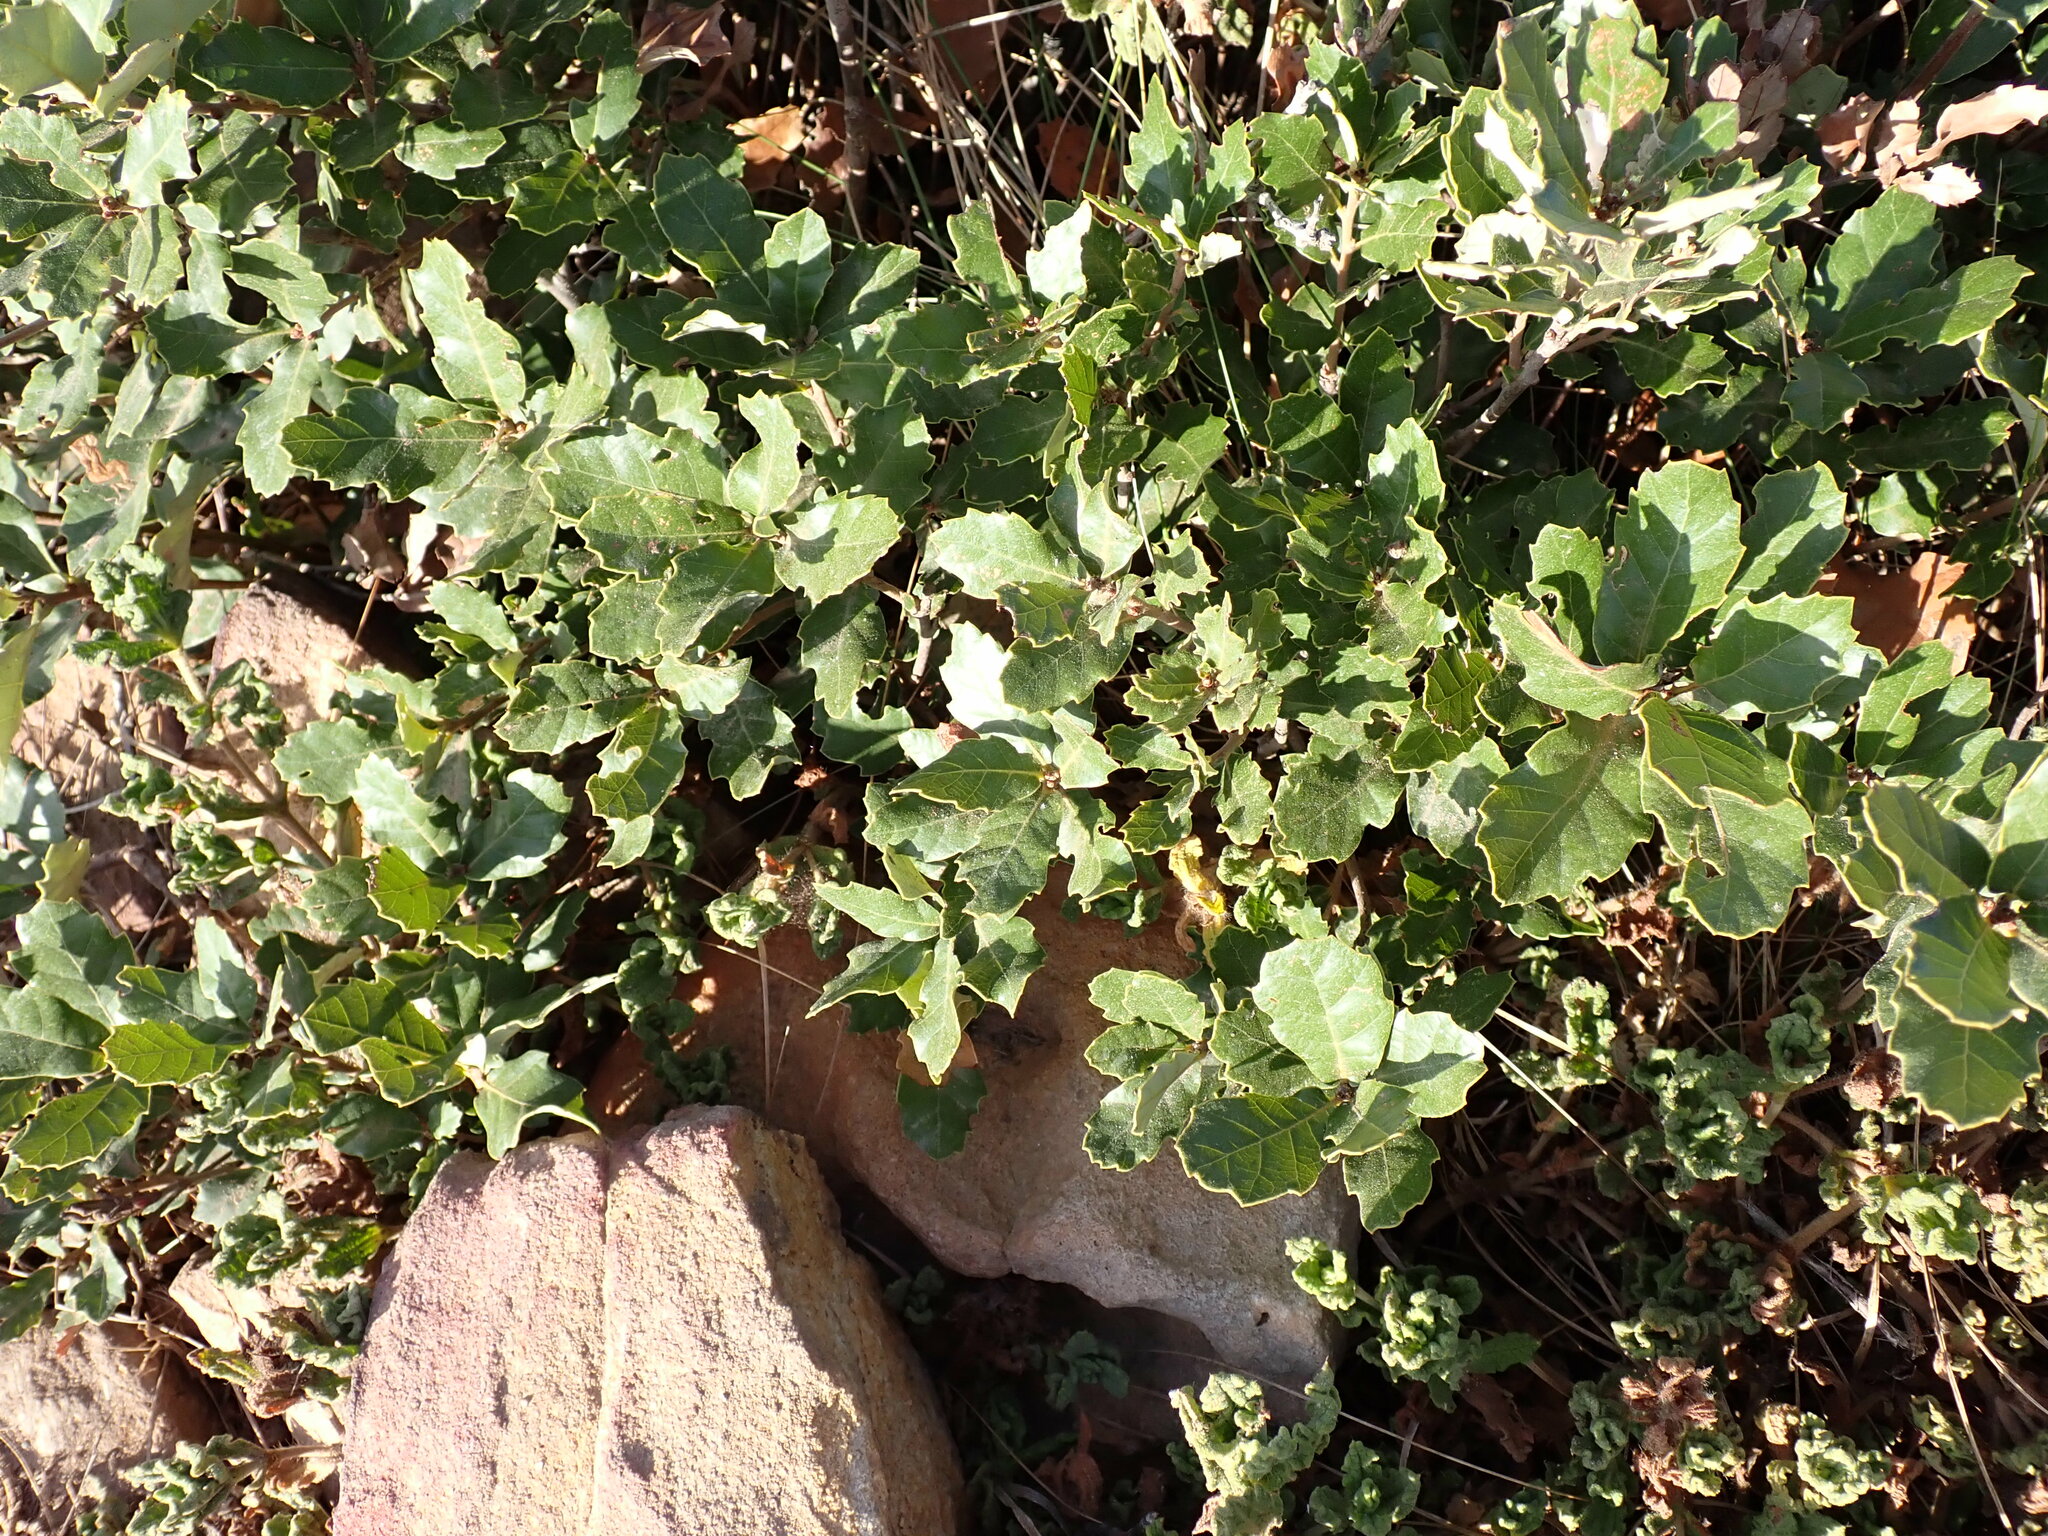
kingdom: Plantae
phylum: Tracheophyta
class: Magnoliopsida
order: Fagales
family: Fagaceae
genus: Quercus
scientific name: Quercus lusitanica
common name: Scrub gall oak
